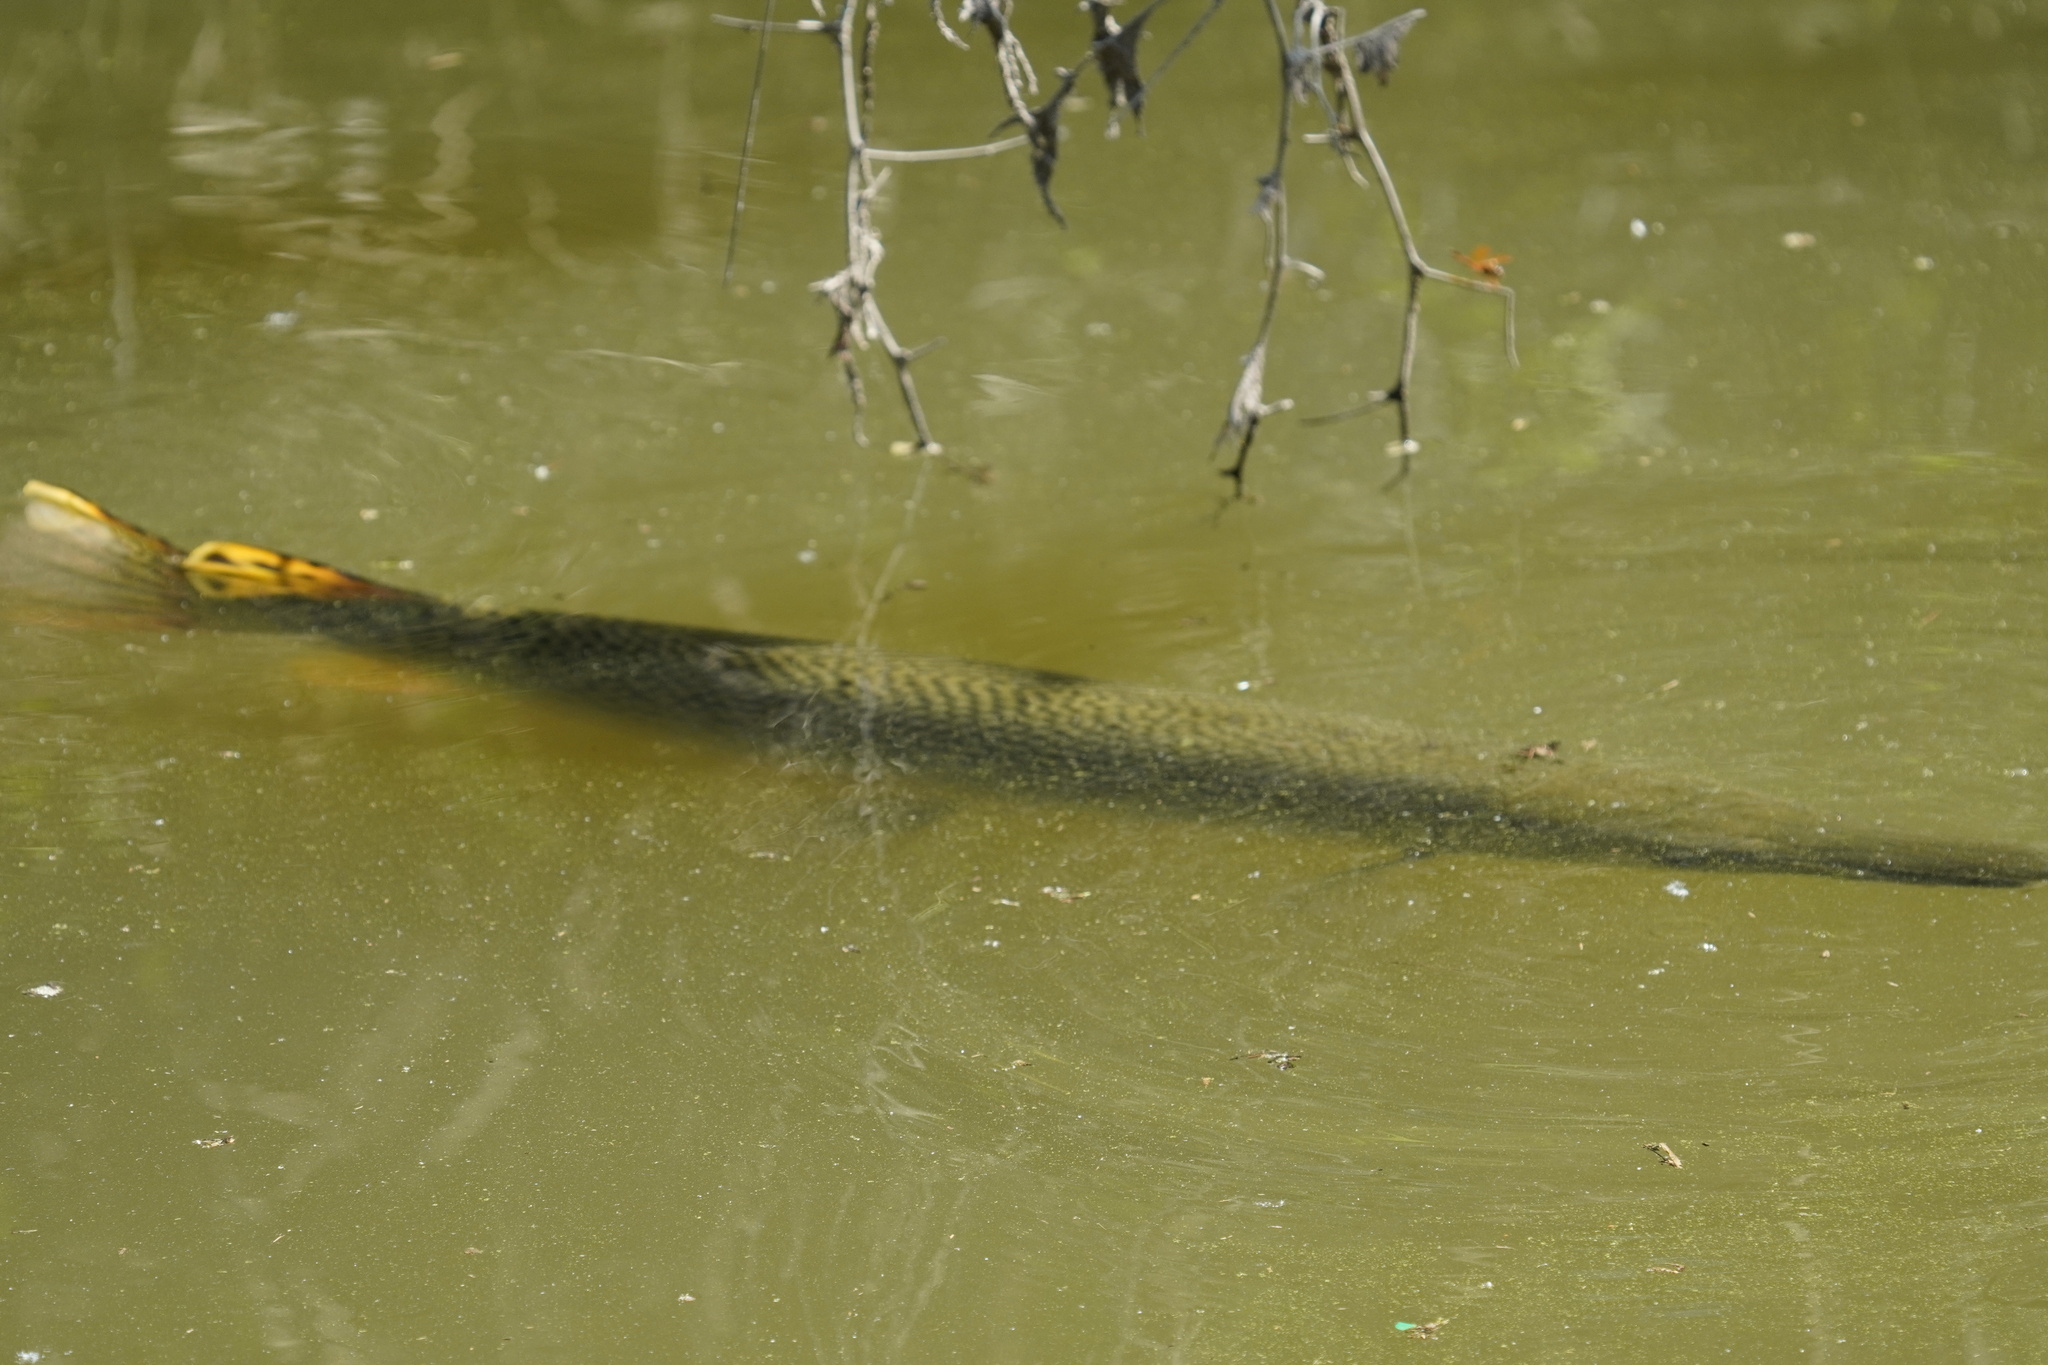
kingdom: Animalia
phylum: Chordata
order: Lepisosteiformes
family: Lepisosteidae
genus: Atractosteus
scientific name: Atractosteus spatula
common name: Alligator gar
